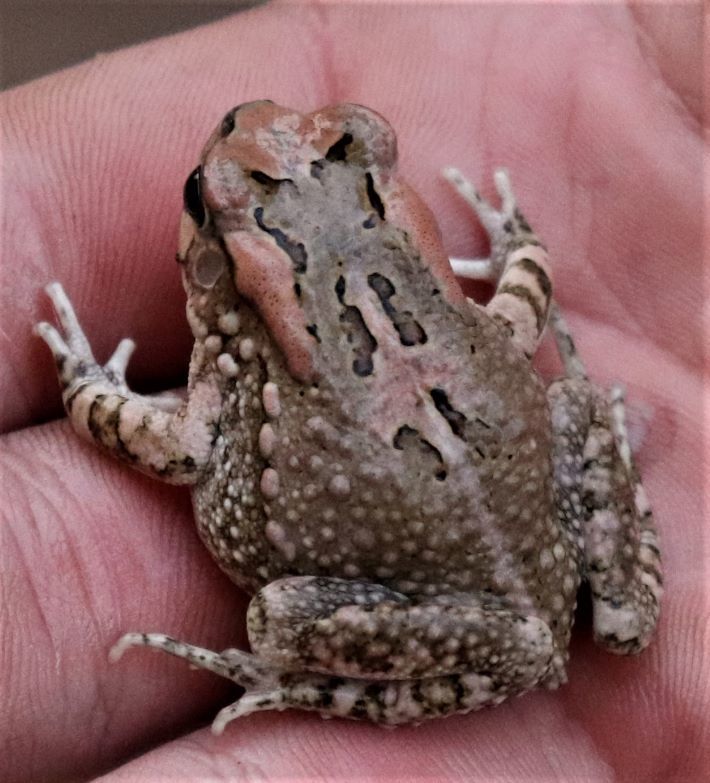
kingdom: Animalia
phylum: Chordata
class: Amphibia
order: Anura
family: Bufonidae
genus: Sclerophrys
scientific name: Sclerophrys capensis
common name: Ranger’s toad
